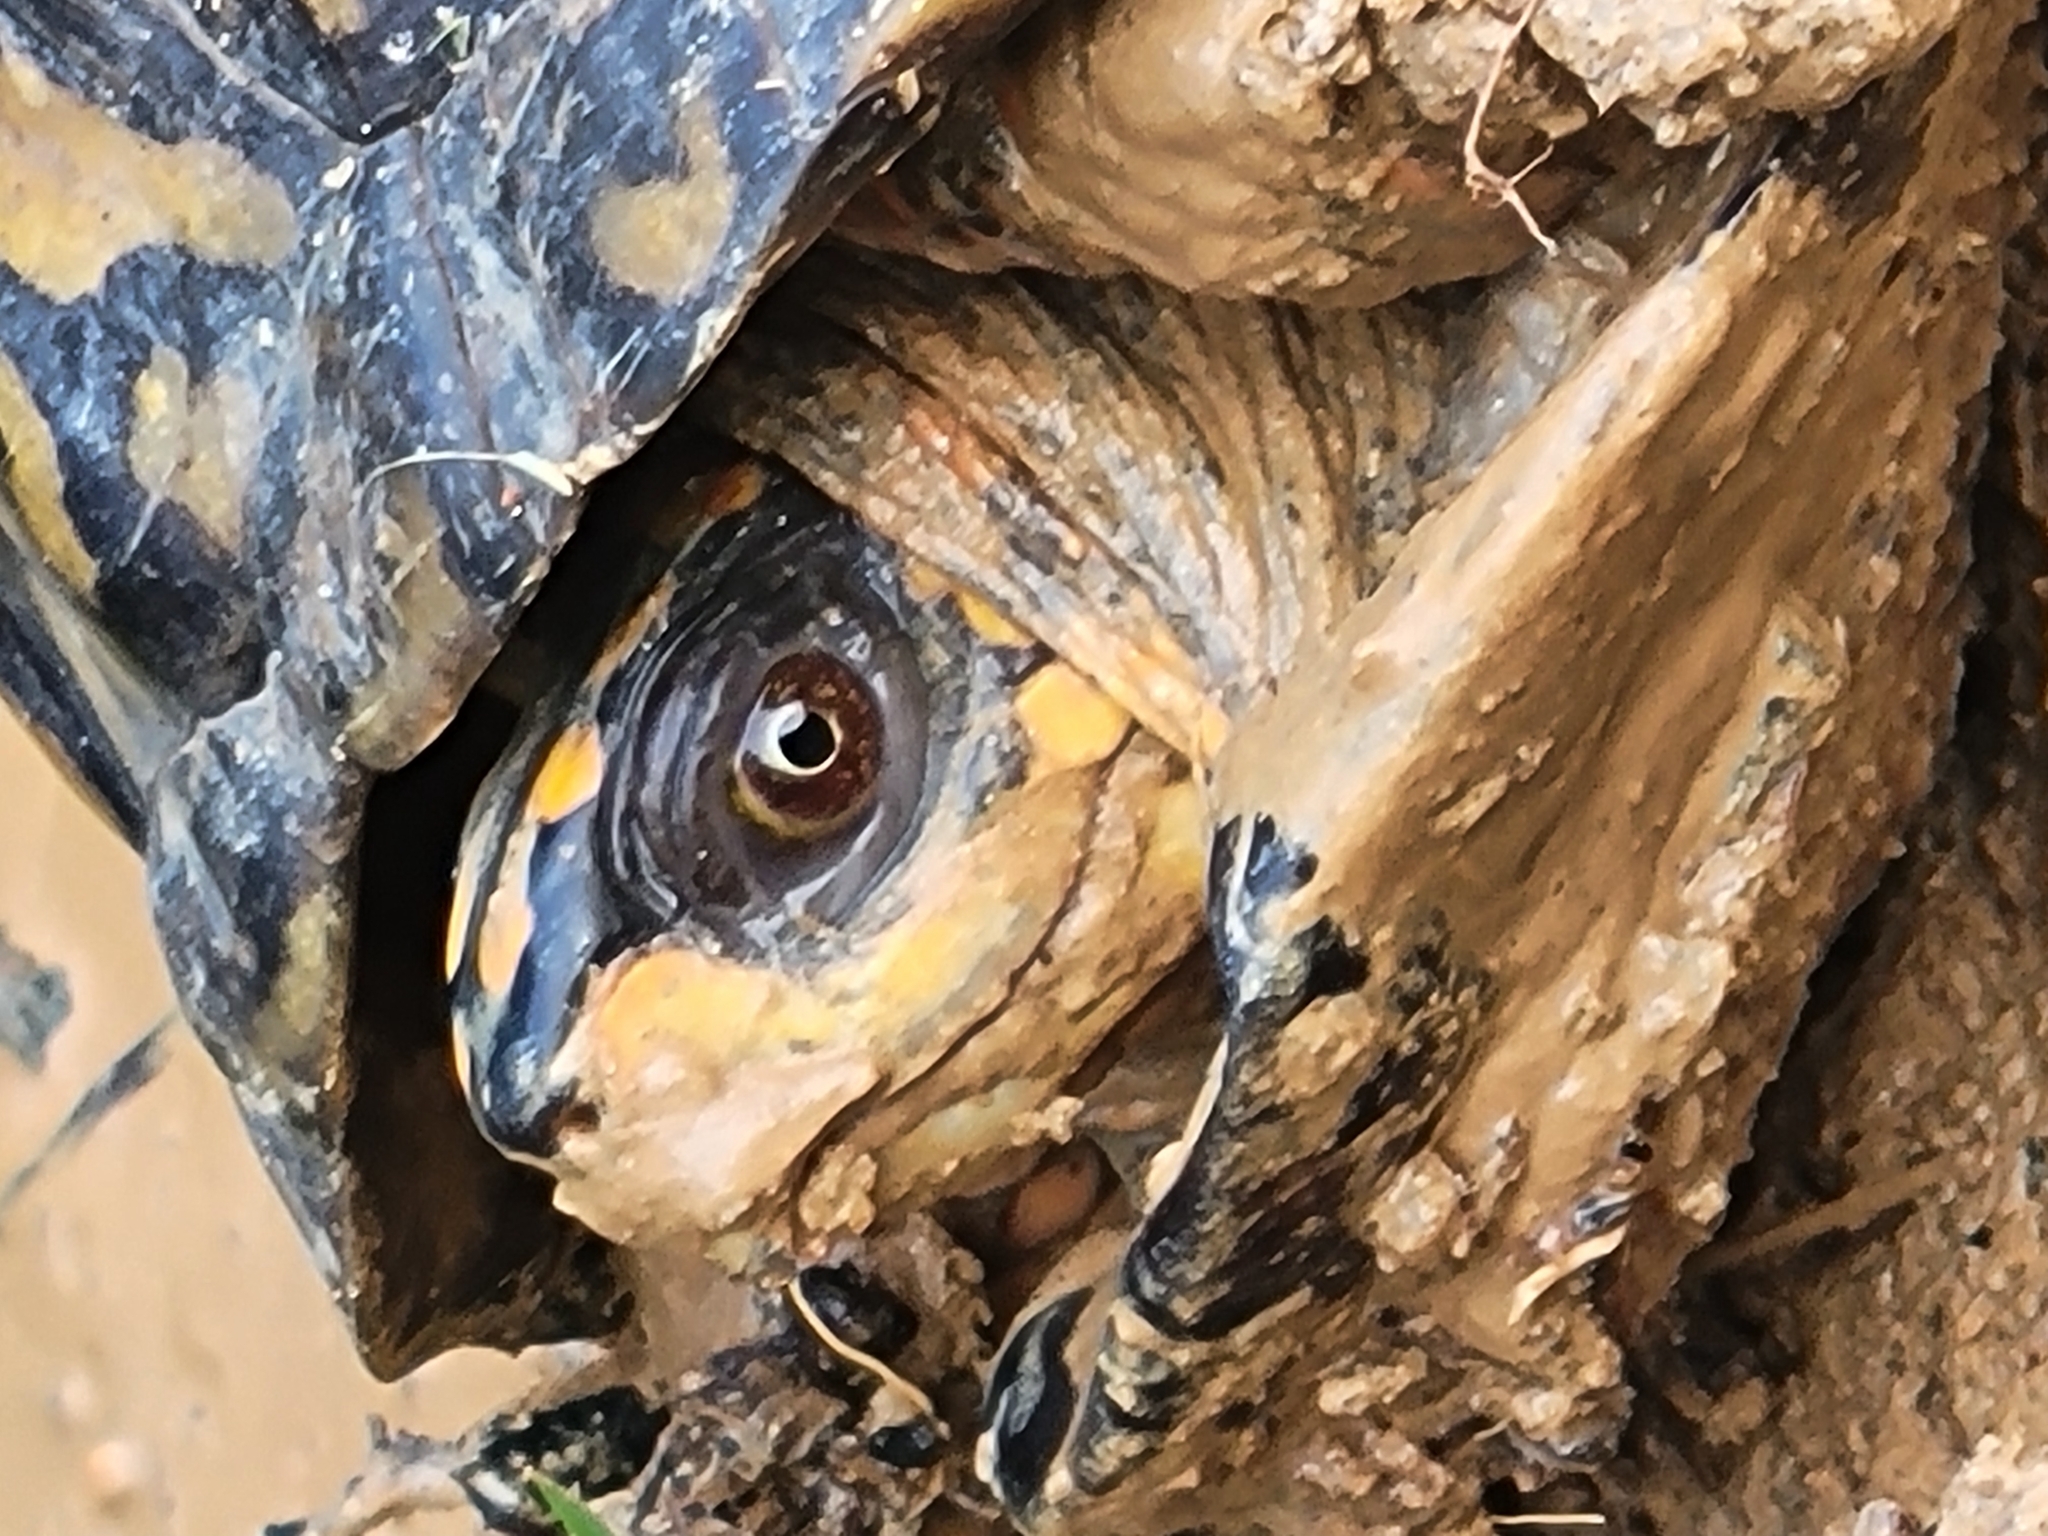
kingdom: Animalia
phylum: Chordata
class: Testudines
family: Emydidae
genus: Terrapene
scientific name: Terrapene carolina
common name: Common box turtle
